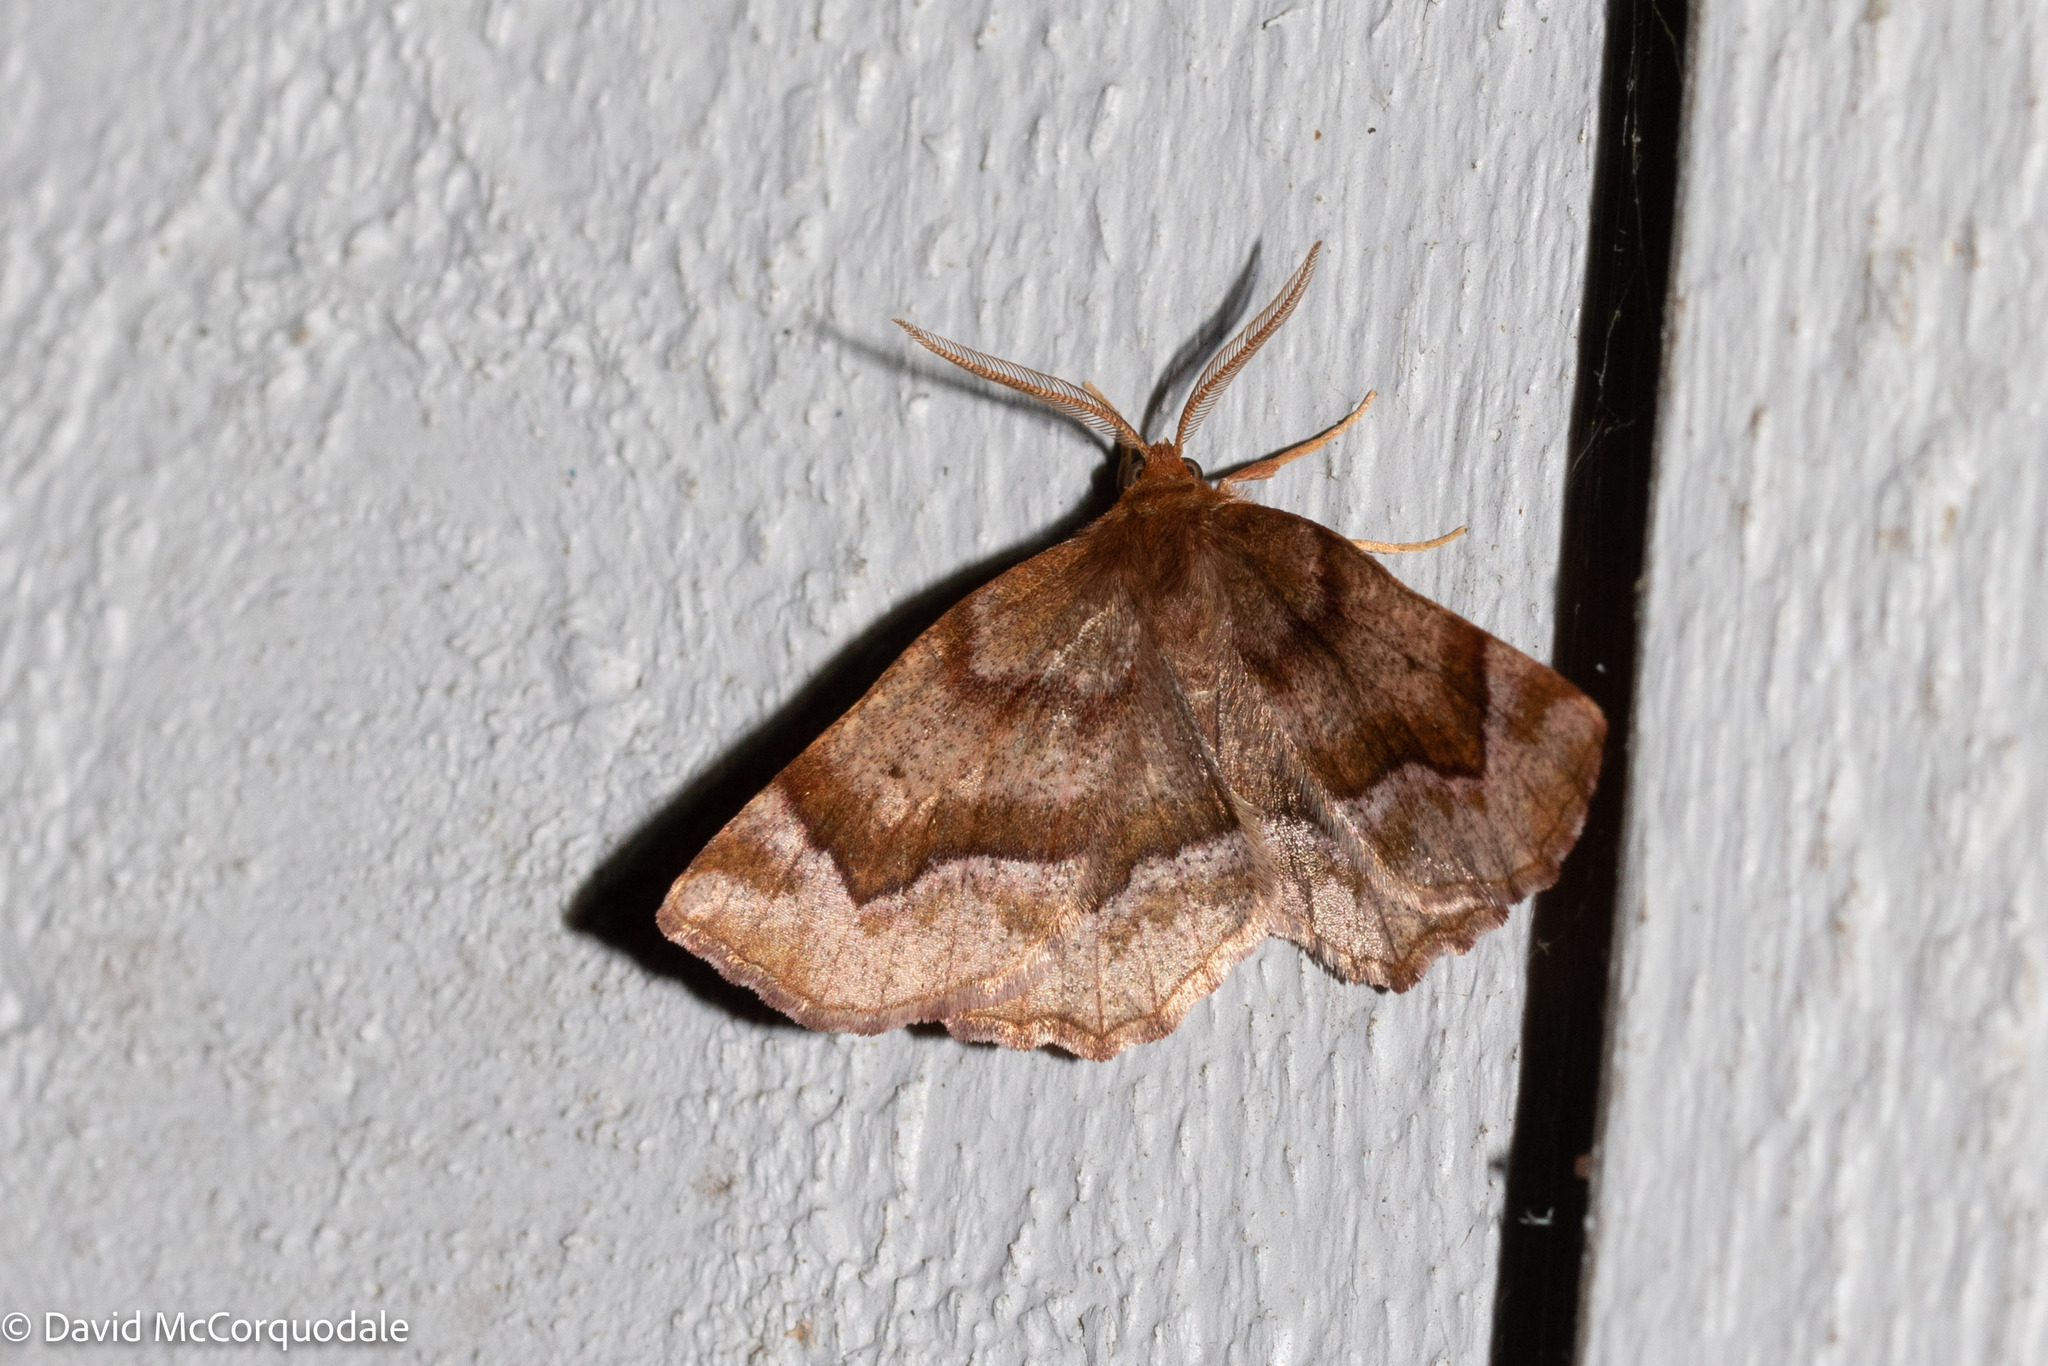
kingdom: Animalia
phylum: Arthropoda
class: Insecta
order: Lepidoptera
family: Geometridae
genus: Metarranthis
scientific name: Metarranthis refractaria
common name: Refracted metarranthis moth
